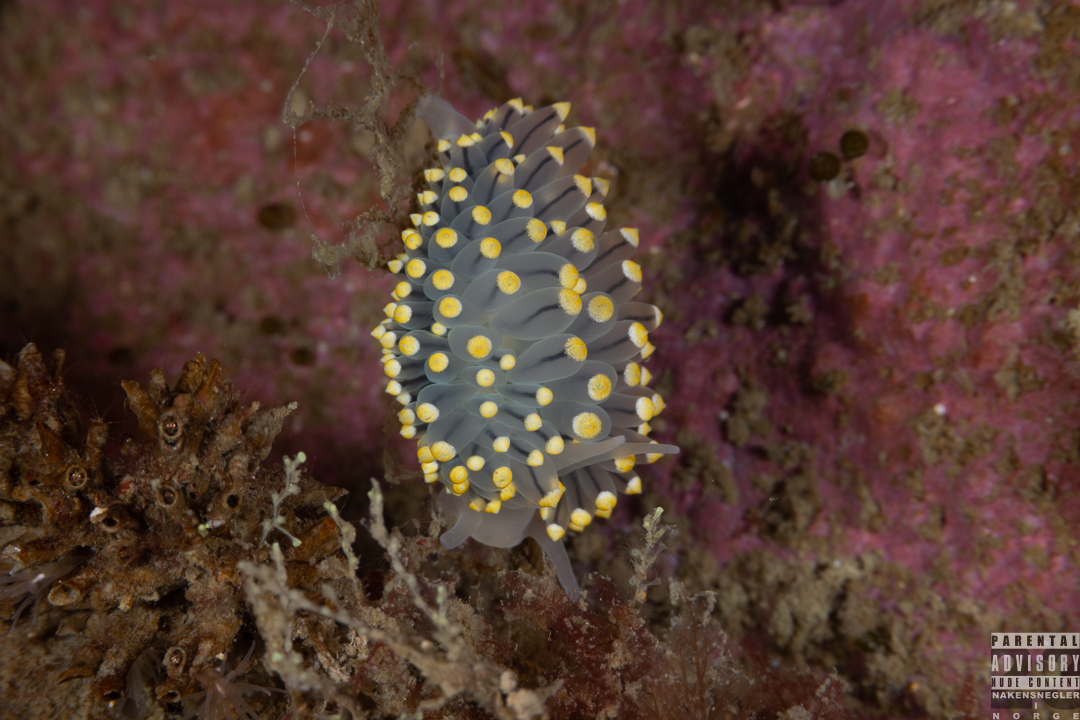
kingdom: Animalia
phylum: Mollusca
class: Gastropoda
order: Nudibranchia
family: Eubranchidae
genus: Eubranchus
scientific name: Eubranchus tricolor
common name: Painted balloon aeolis
